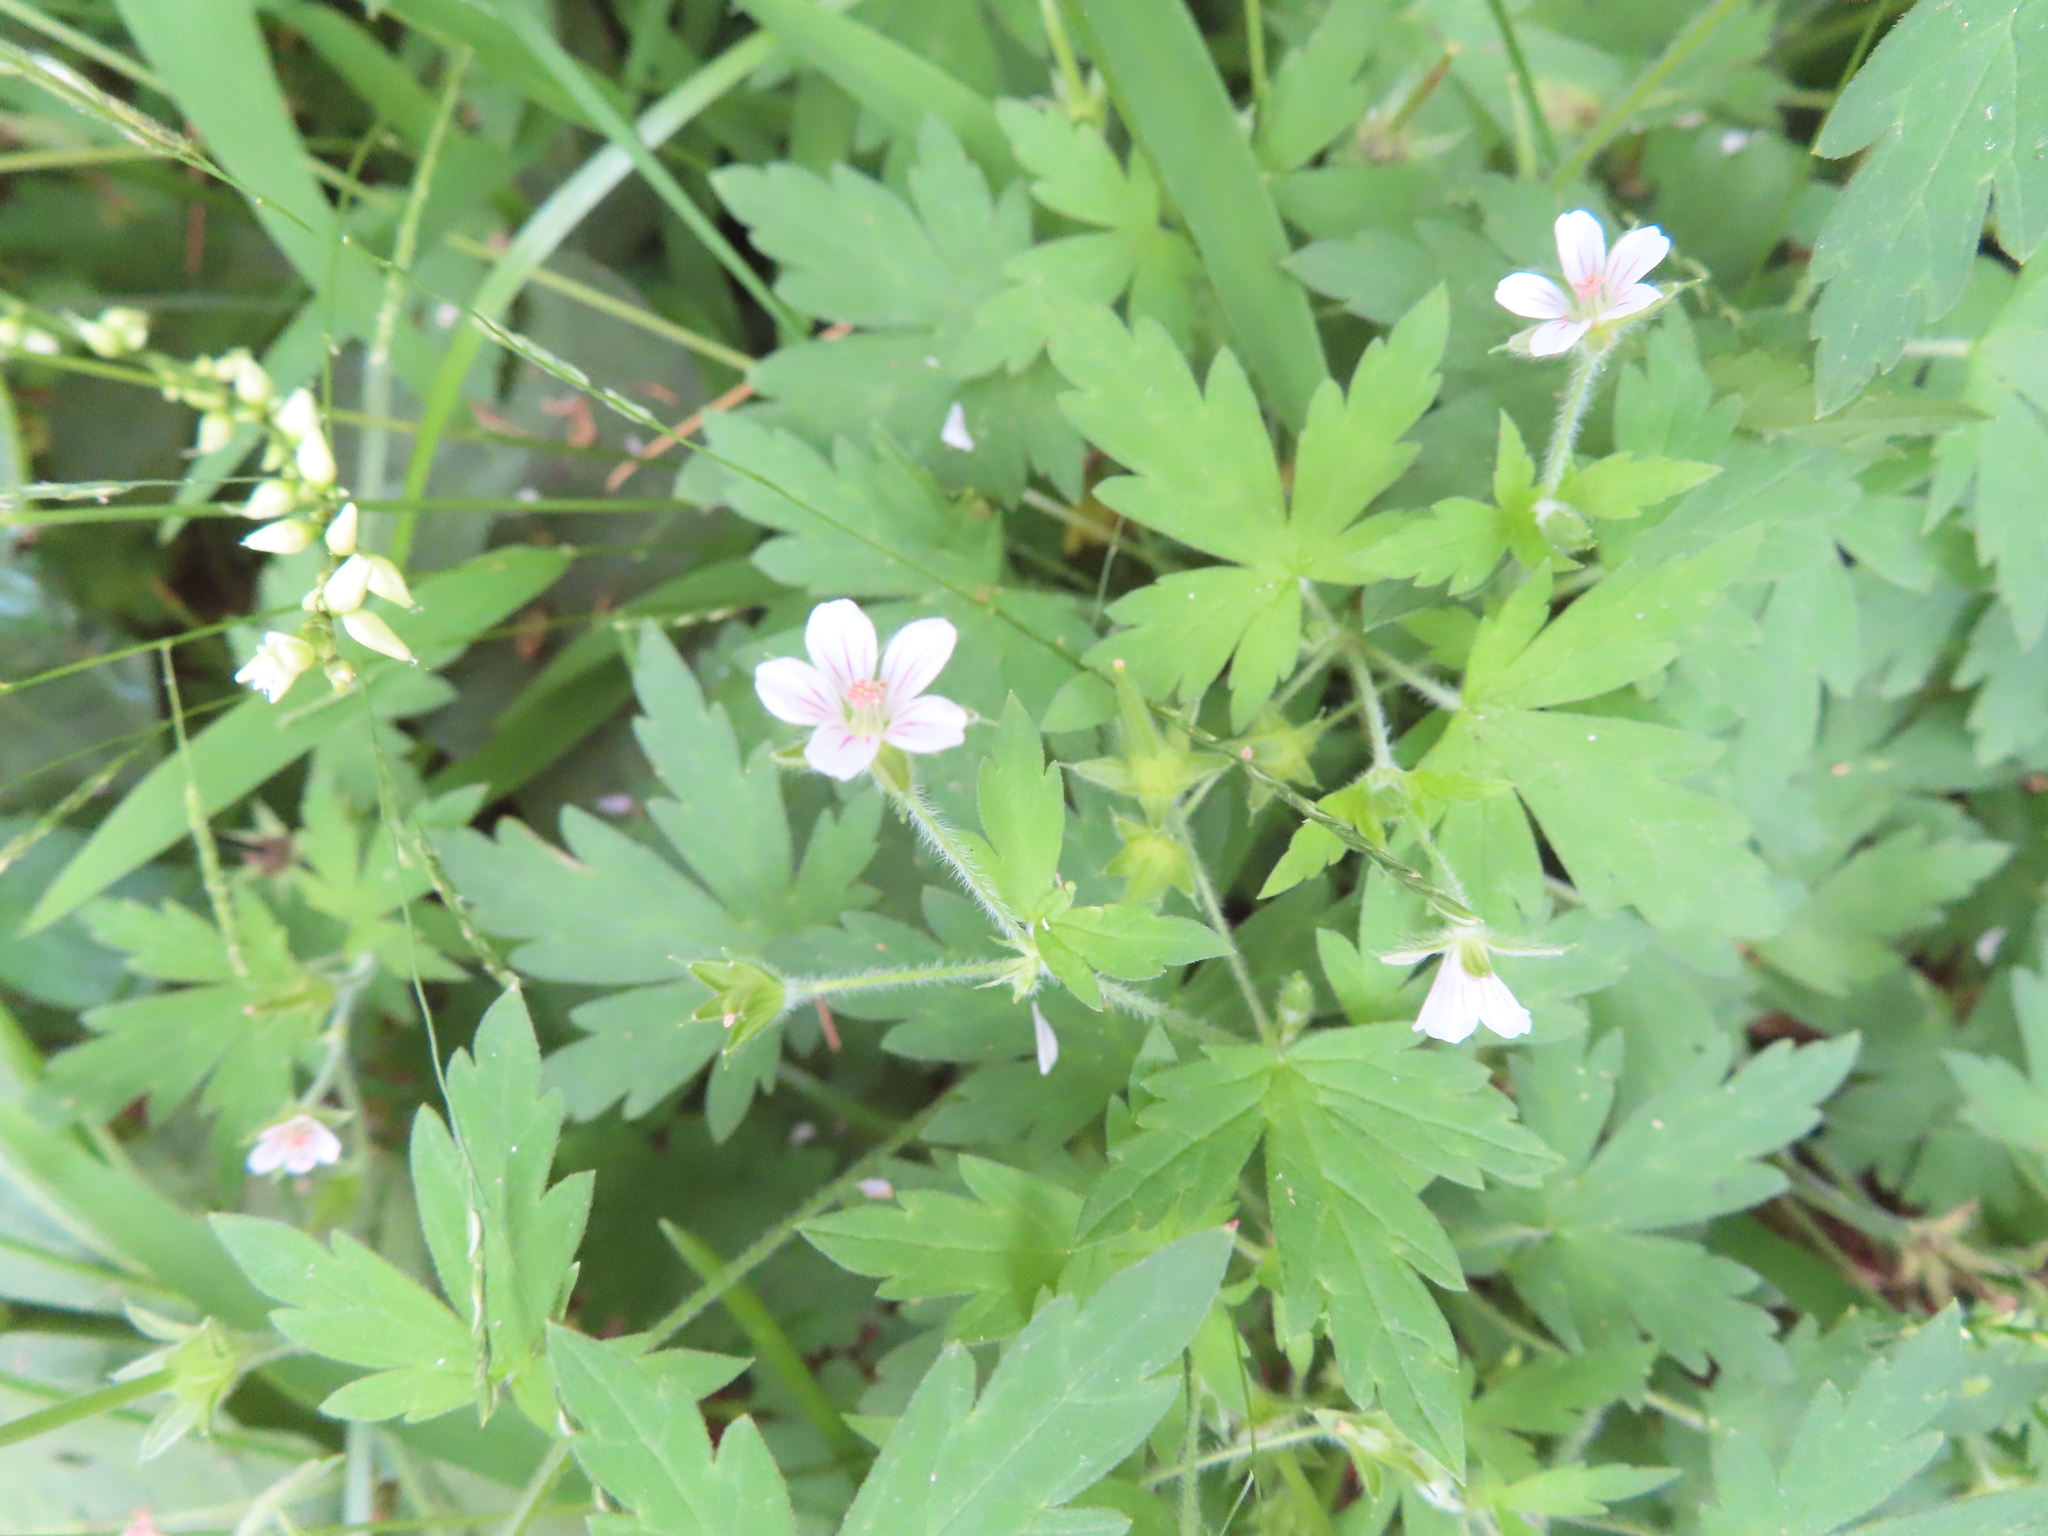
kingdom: Plantae
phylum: Tracheophyta
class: Magnoliopsida
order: Geraniales
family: Geraniaceae
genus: Geranium
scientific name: Geranium sibiricum
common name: Siberian crane's-bill
